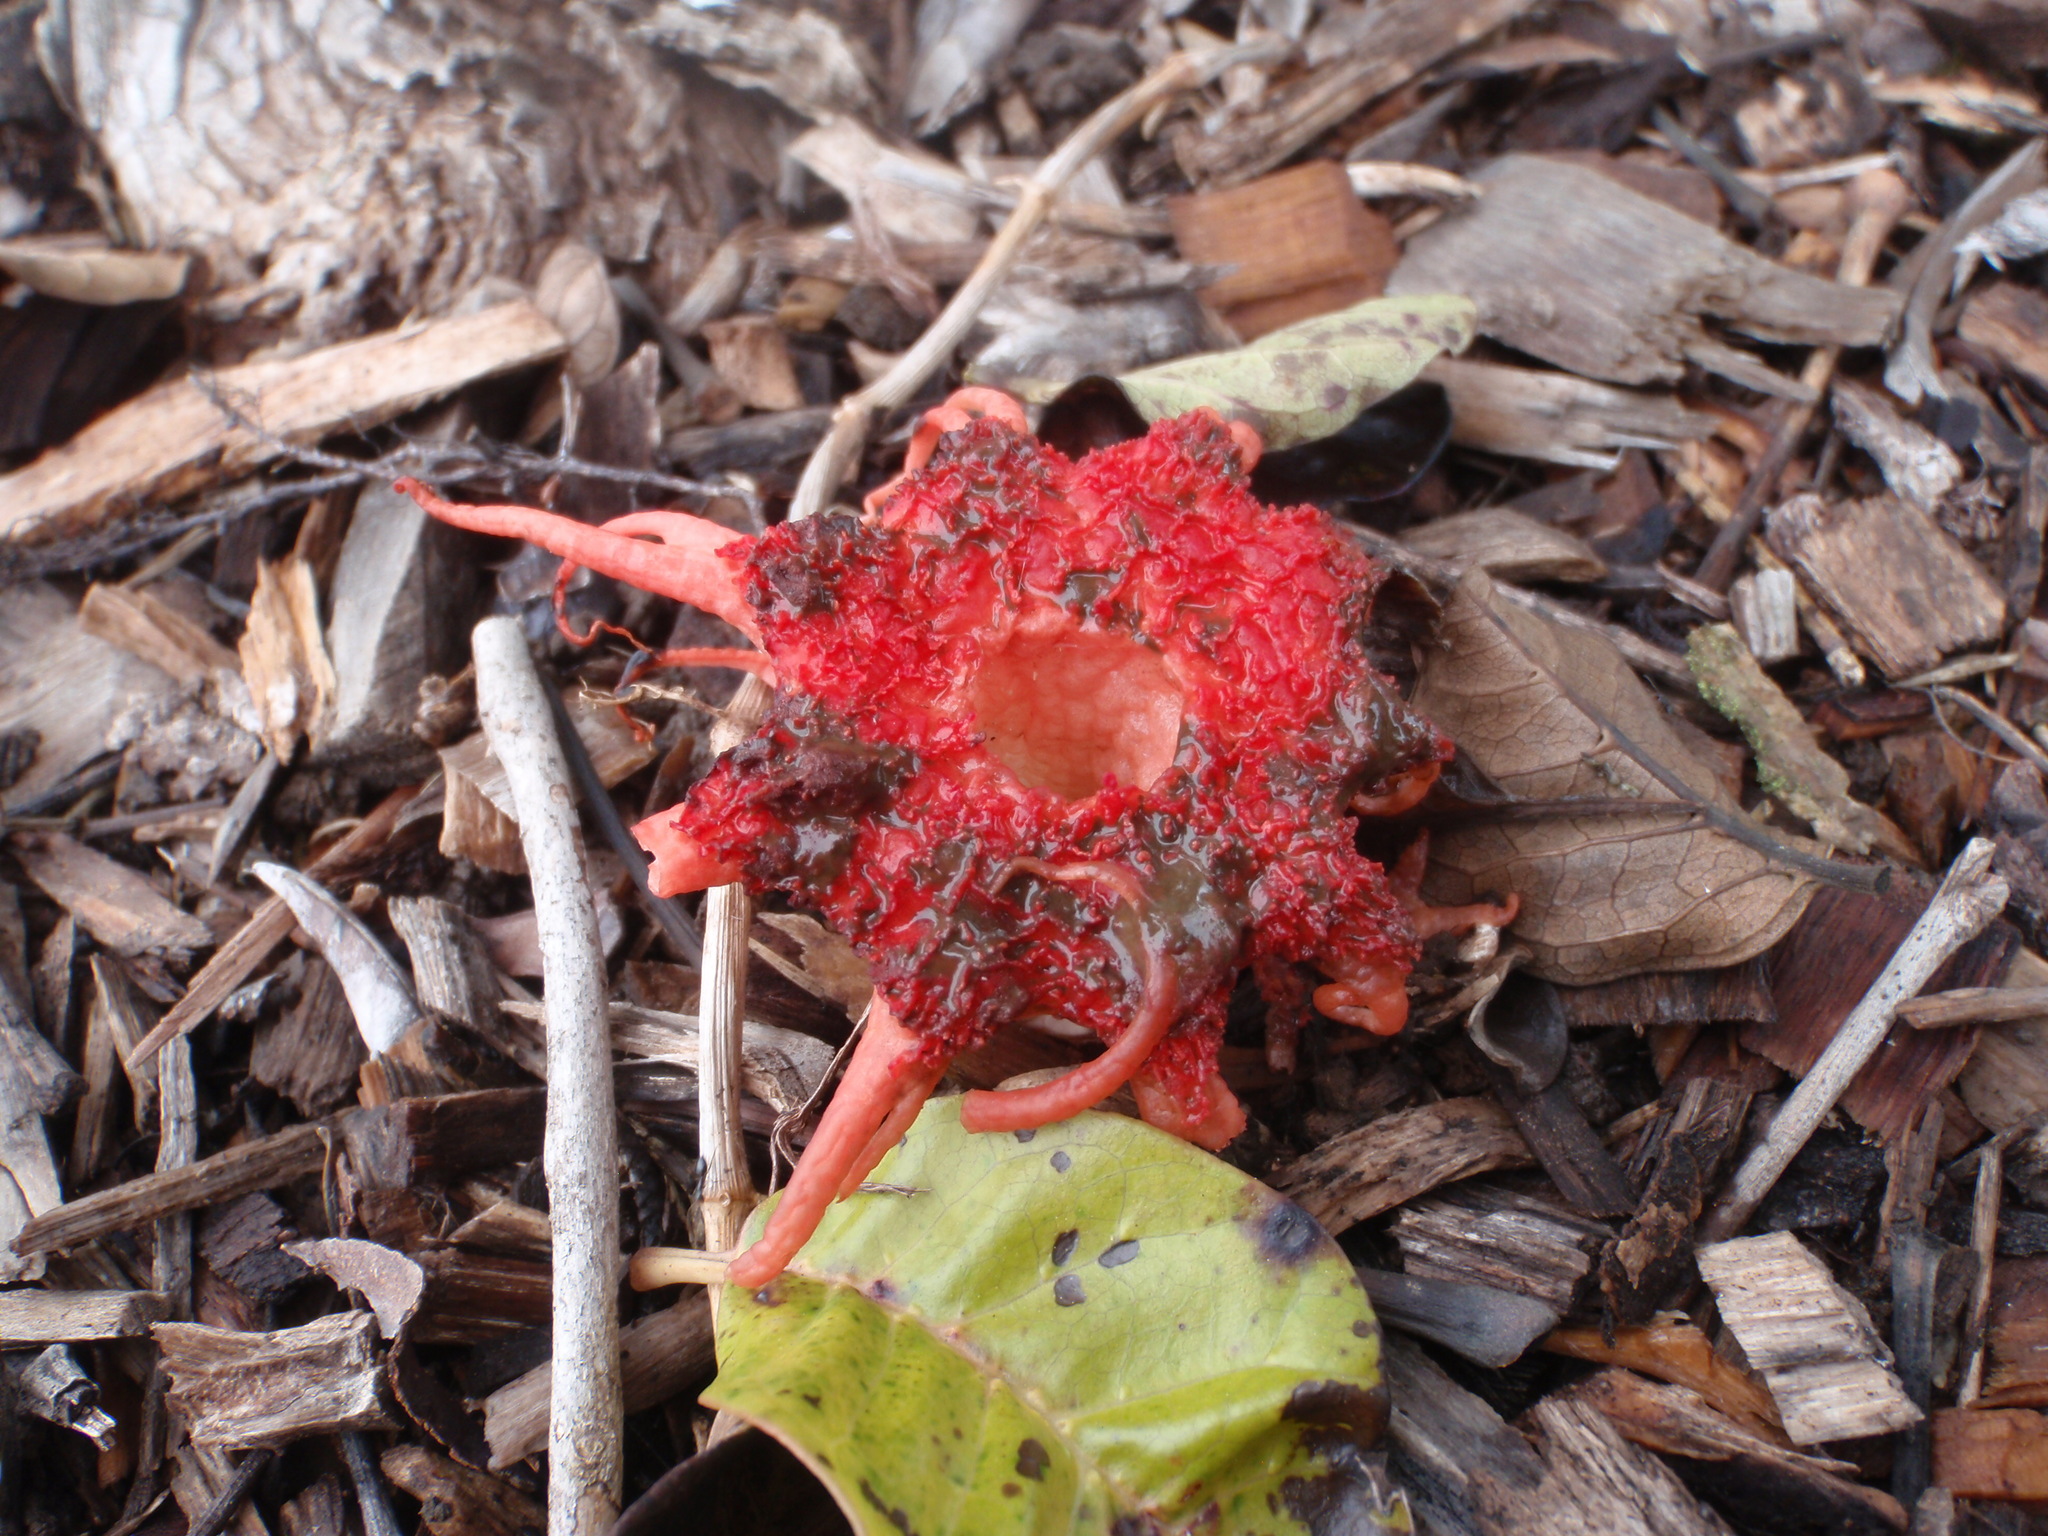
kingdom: Fungi
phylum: Basidiomycota
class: Agaricomycetes
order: Phallales
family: Phallaceae
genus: Aseroe
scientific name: Aseroe rubra
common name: Starfish fungus
